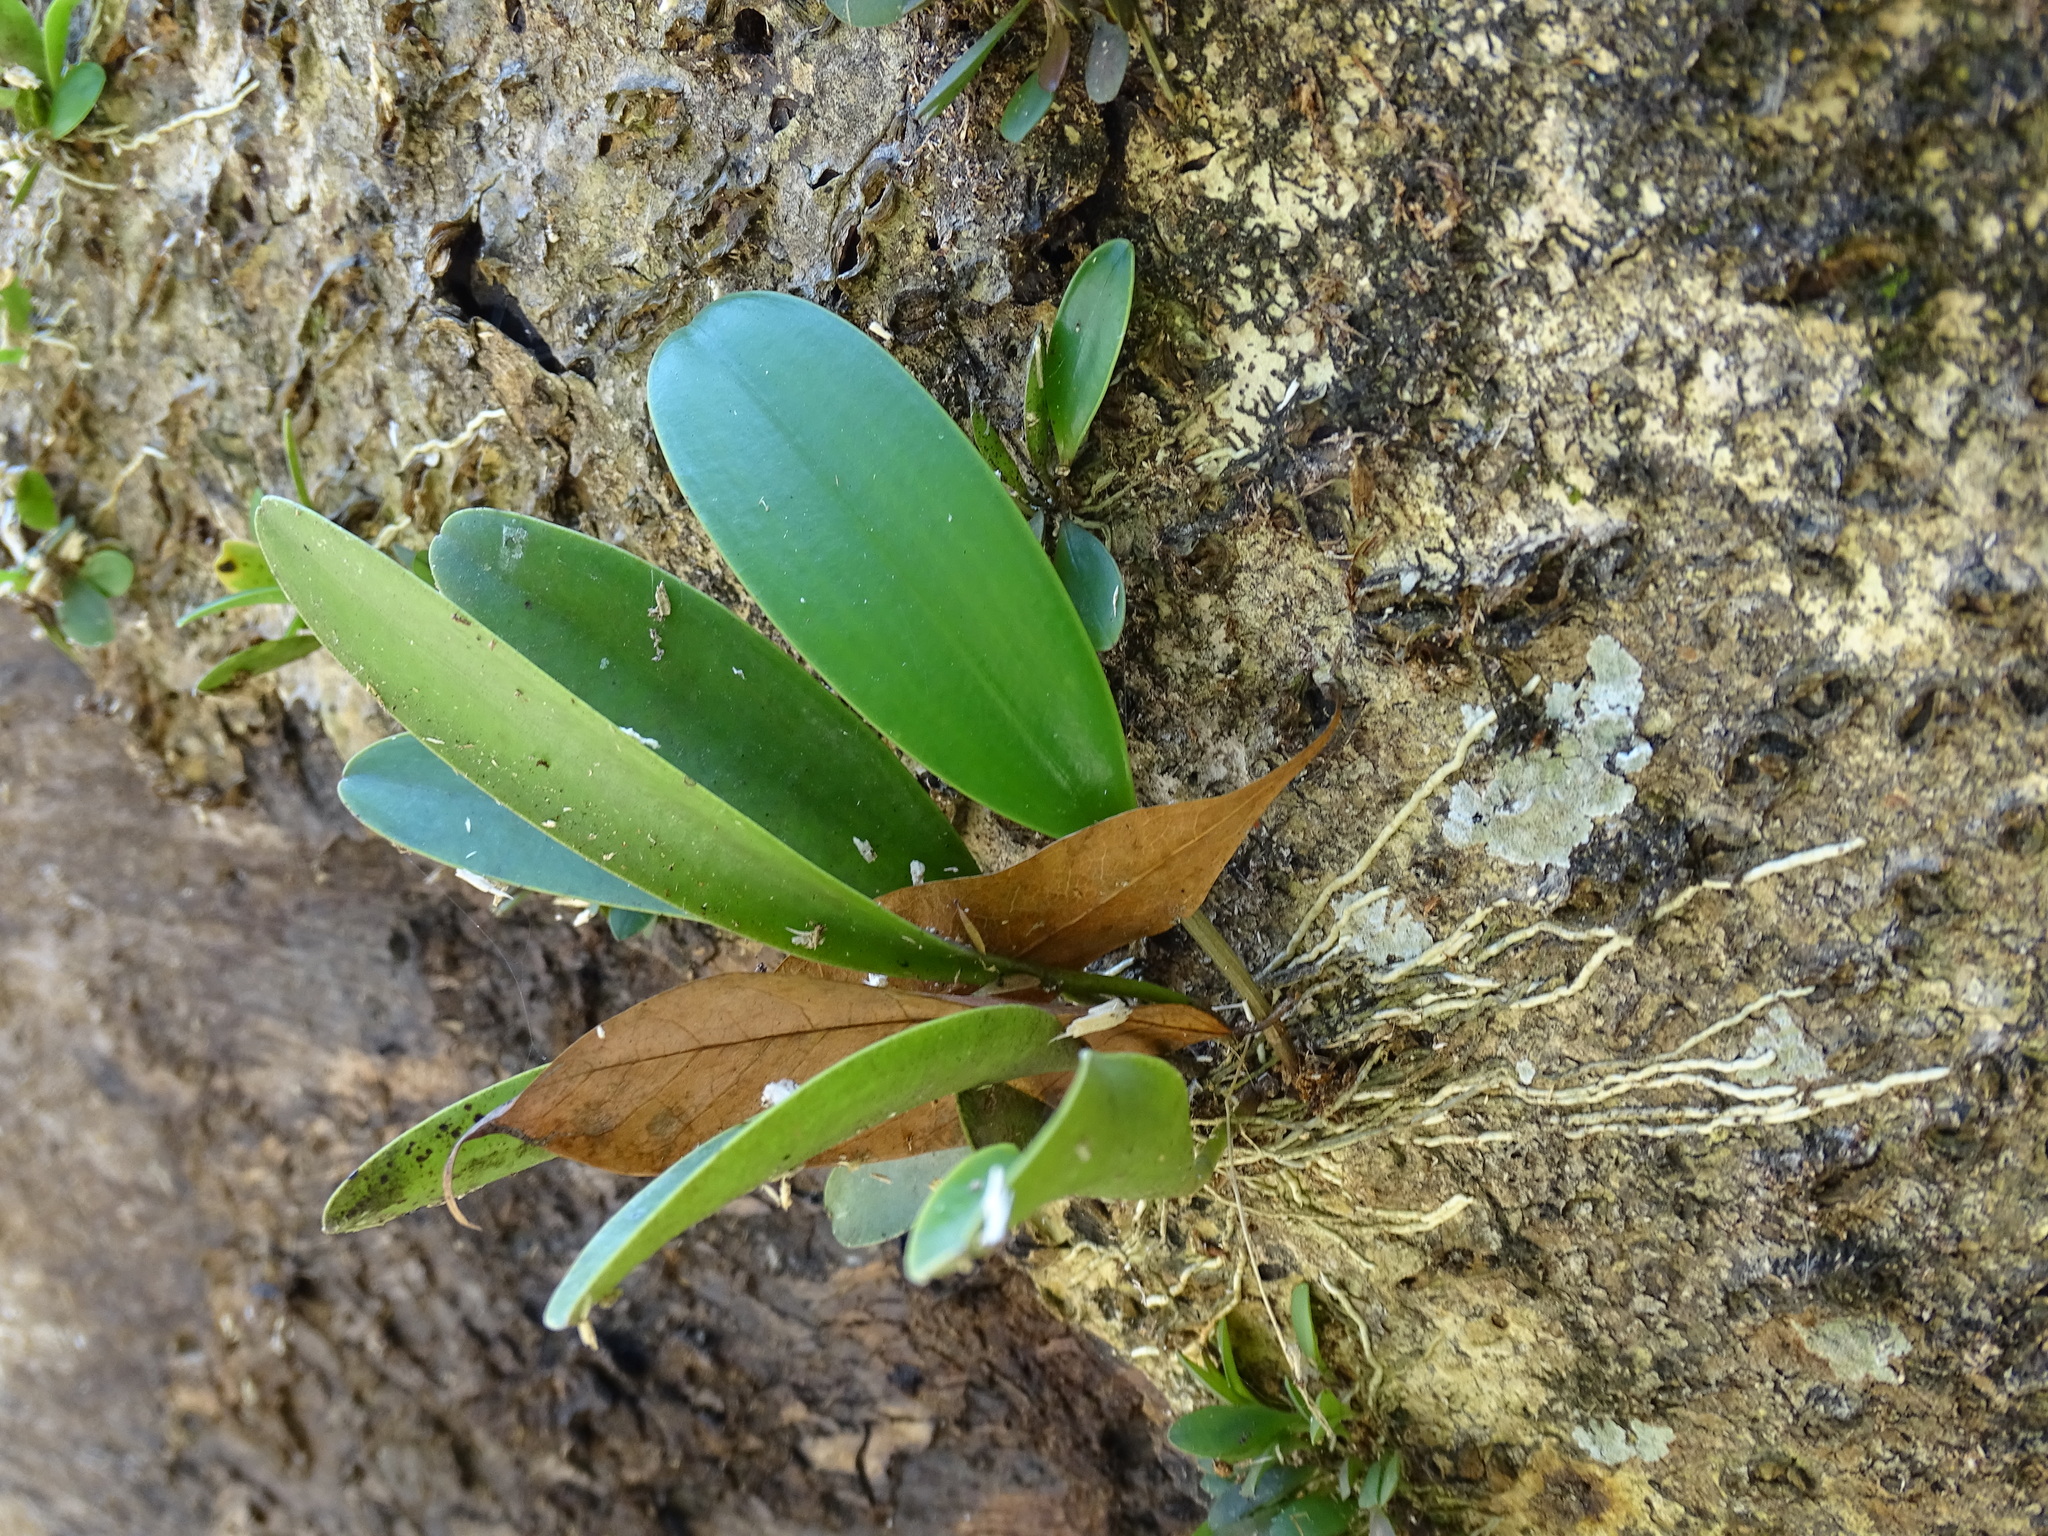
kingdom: Plantae
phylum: Tracheophyta
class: Liliopsida
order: Asparagales
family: Orchidaceae
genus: Pleurothallis
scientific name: Pleurothallis quadrifida
